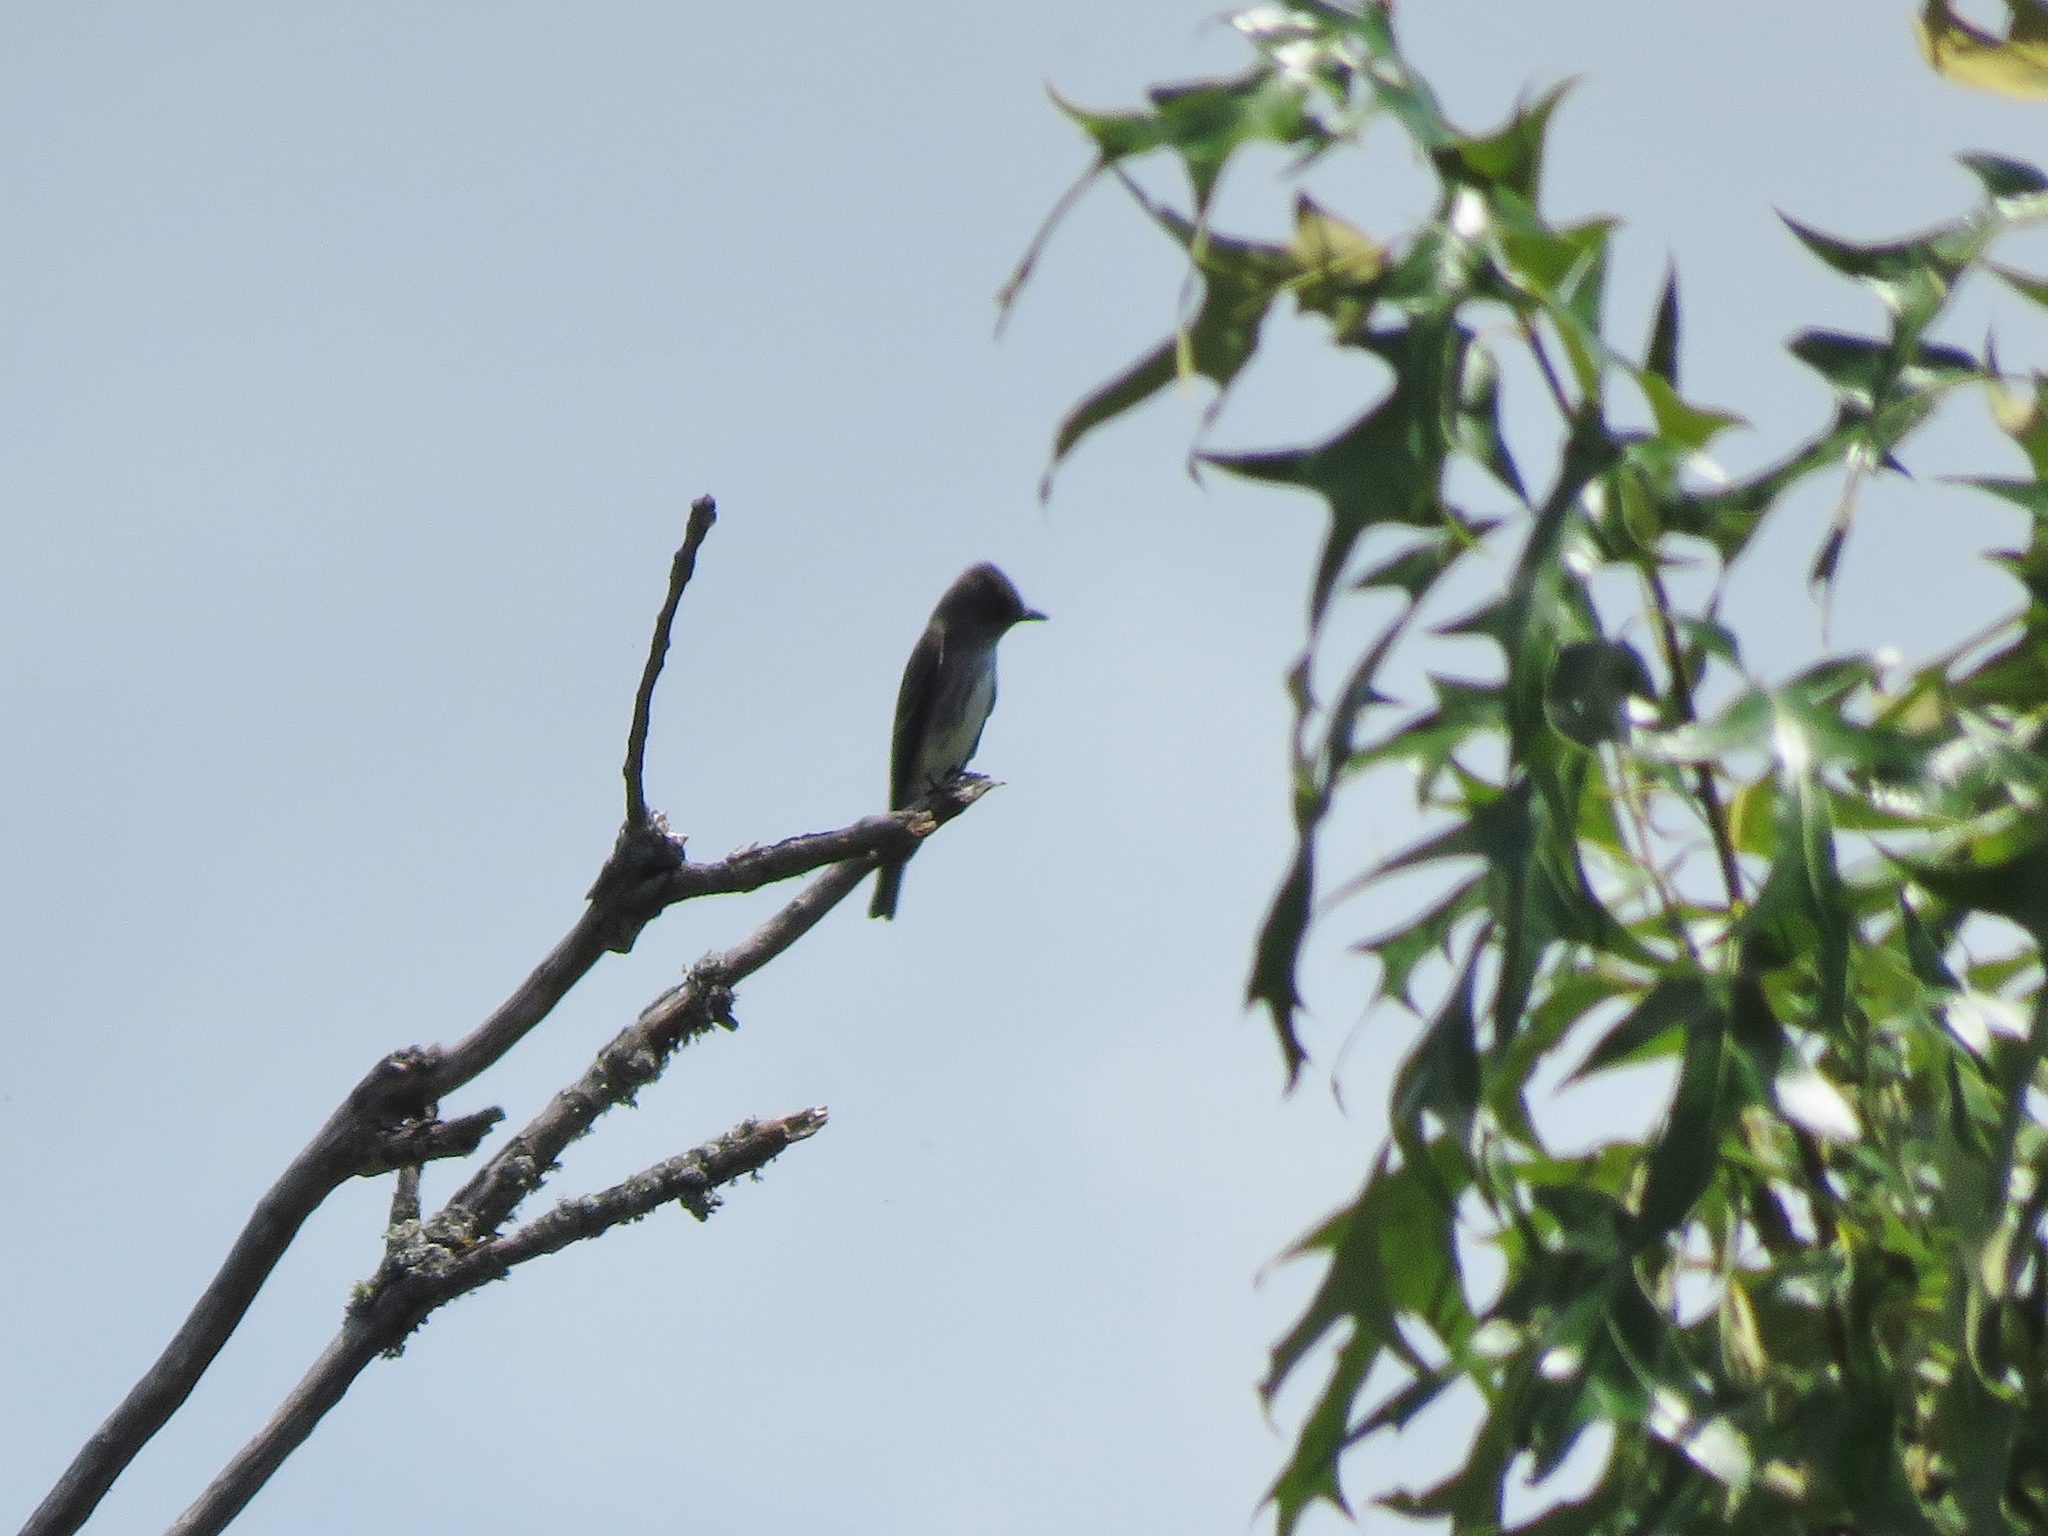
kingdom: Animalia
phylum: Chordata
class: Aves
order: Passeriformes
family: Tyrannidae
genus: Contopus
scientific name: Contopus cooperi
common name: Olive-sided flycatcher
